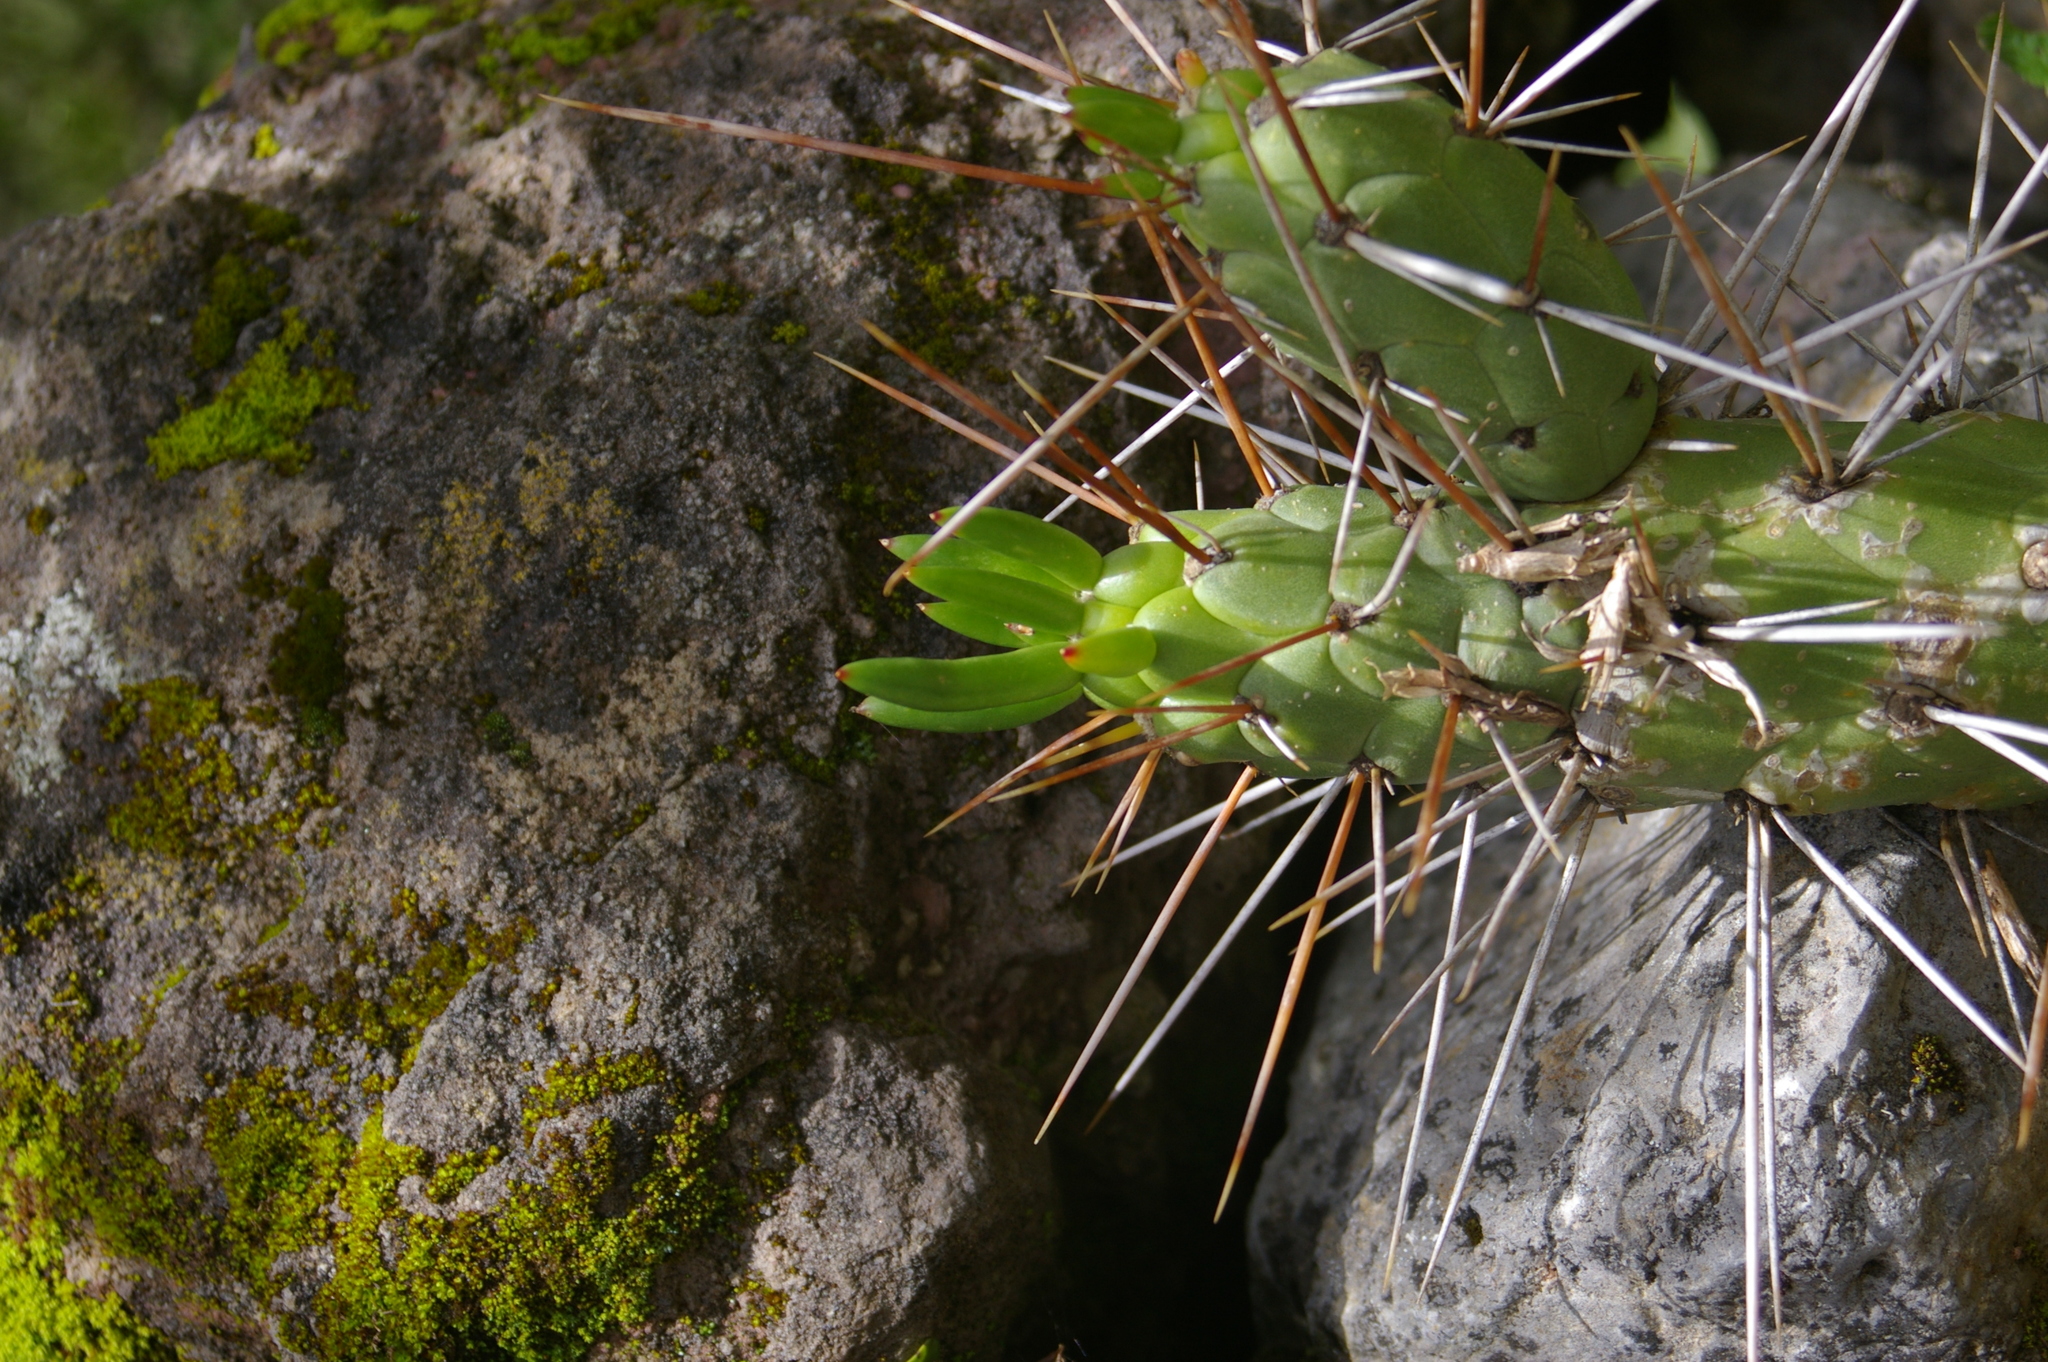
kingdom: Plantae
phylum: Tracheophyta
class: Magnoliopsida
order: Caryophyllales
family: Cactaceae
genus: Austrocylindropuntia
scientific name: Austrocylindropuntia subulata
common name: Eve's needle cactus
